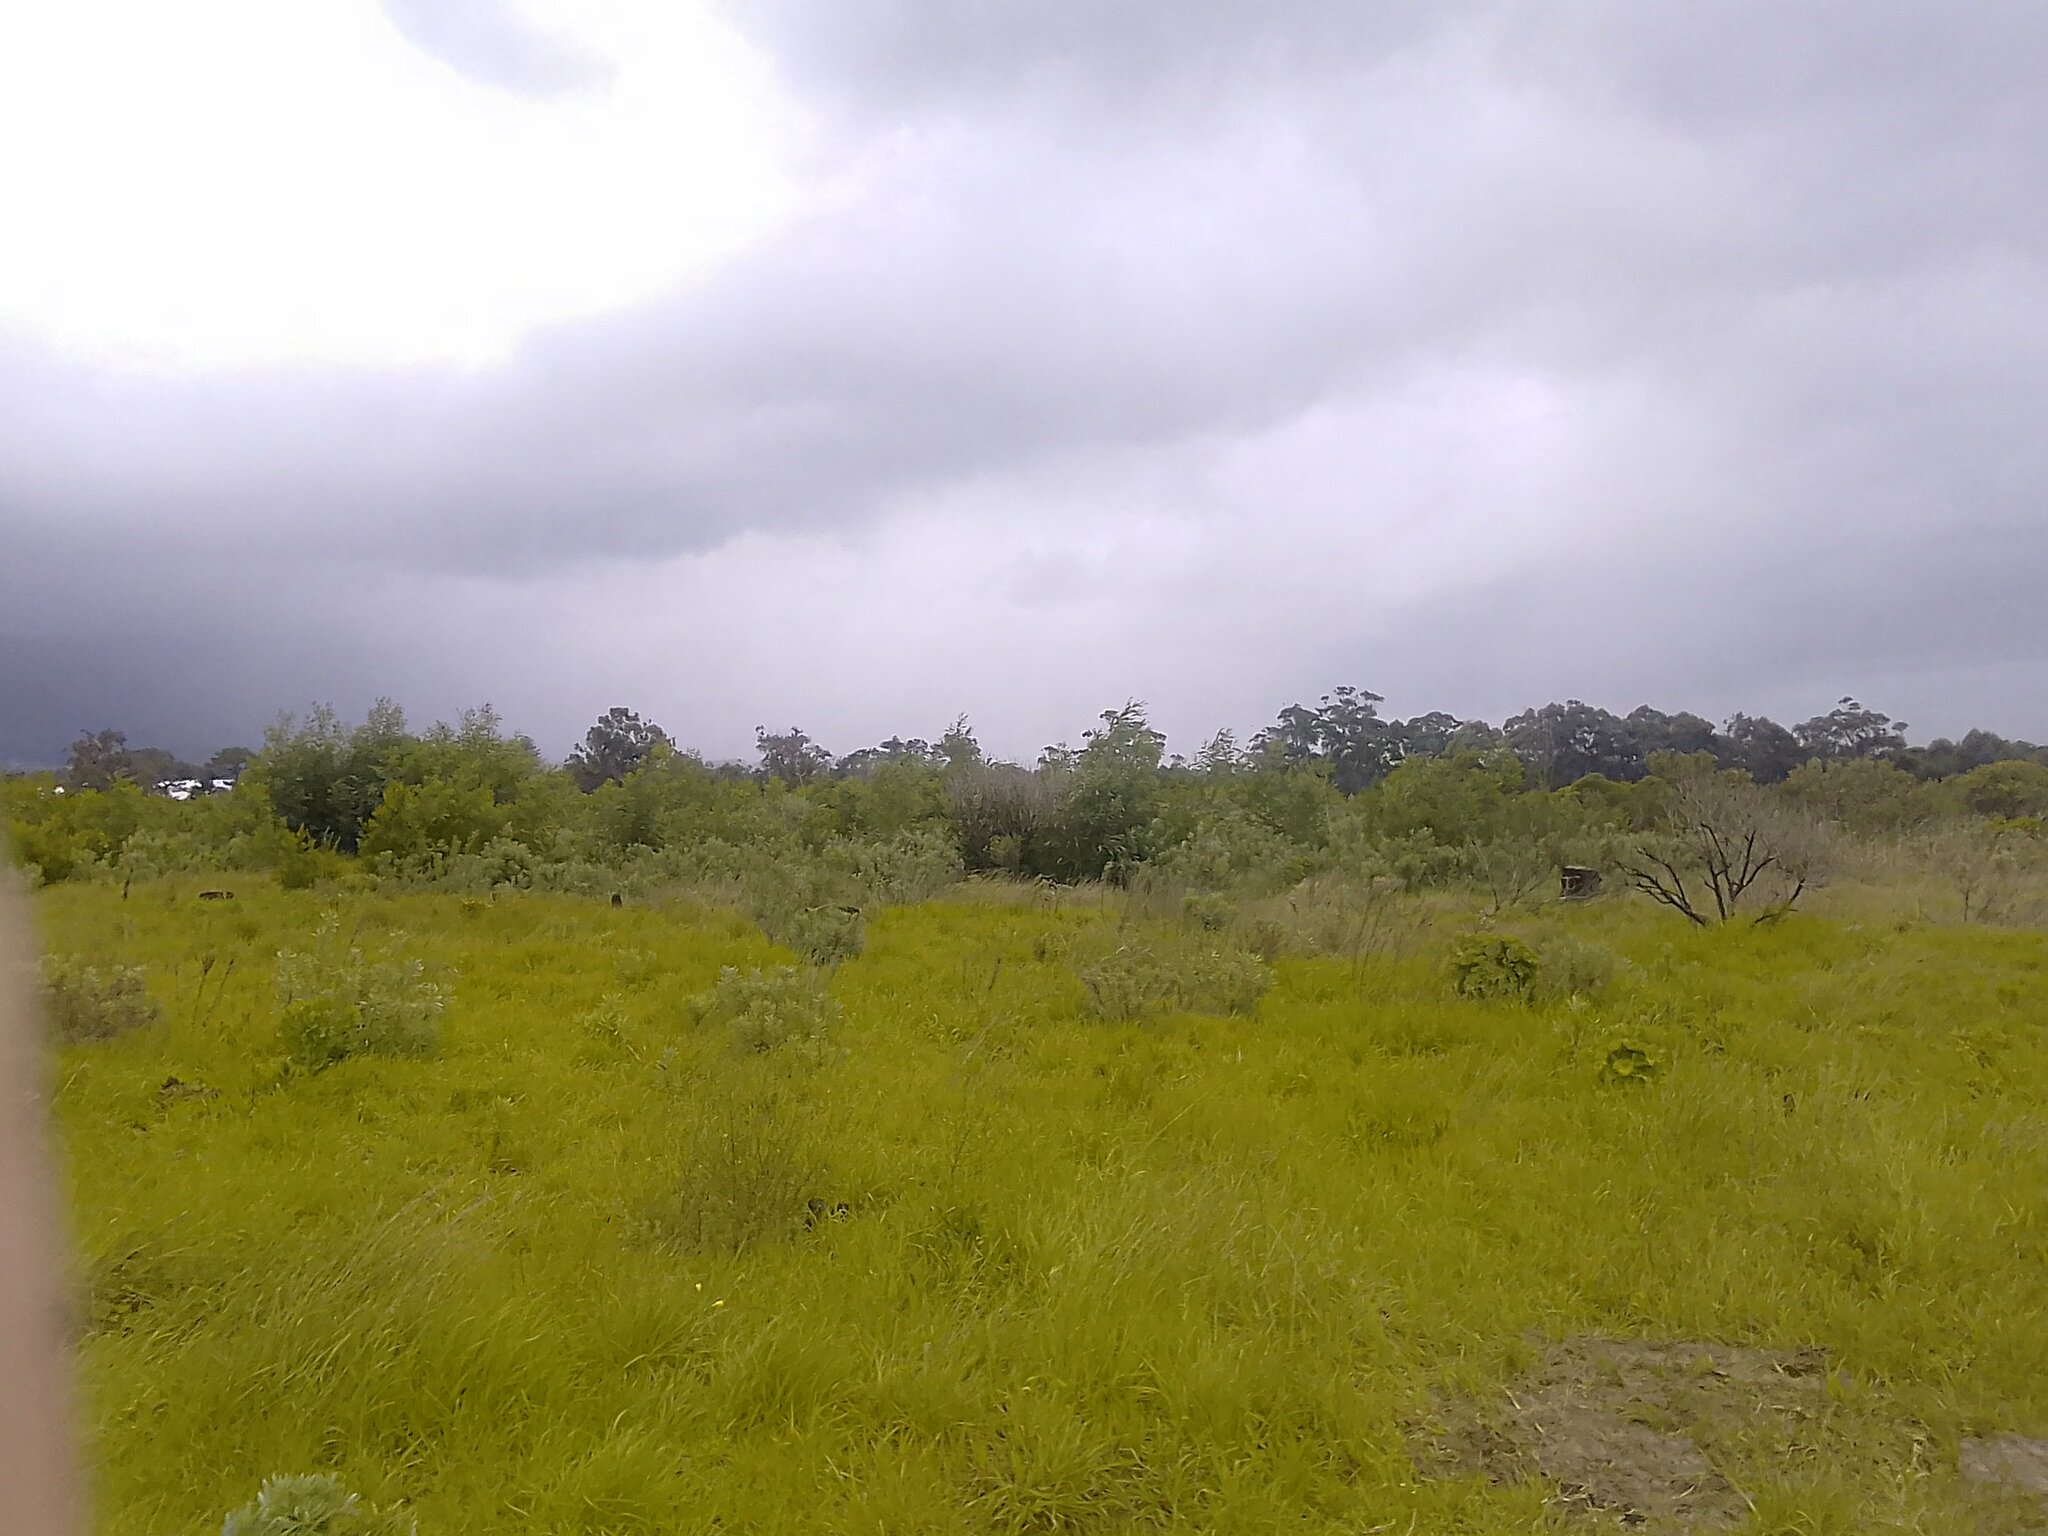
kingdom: Plantae
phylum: Tracheophyta
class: Magnoliopsida
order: Fabales
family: Fabaceae
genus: Acacia
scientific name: Acacia mearnsii
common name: Black wattle
